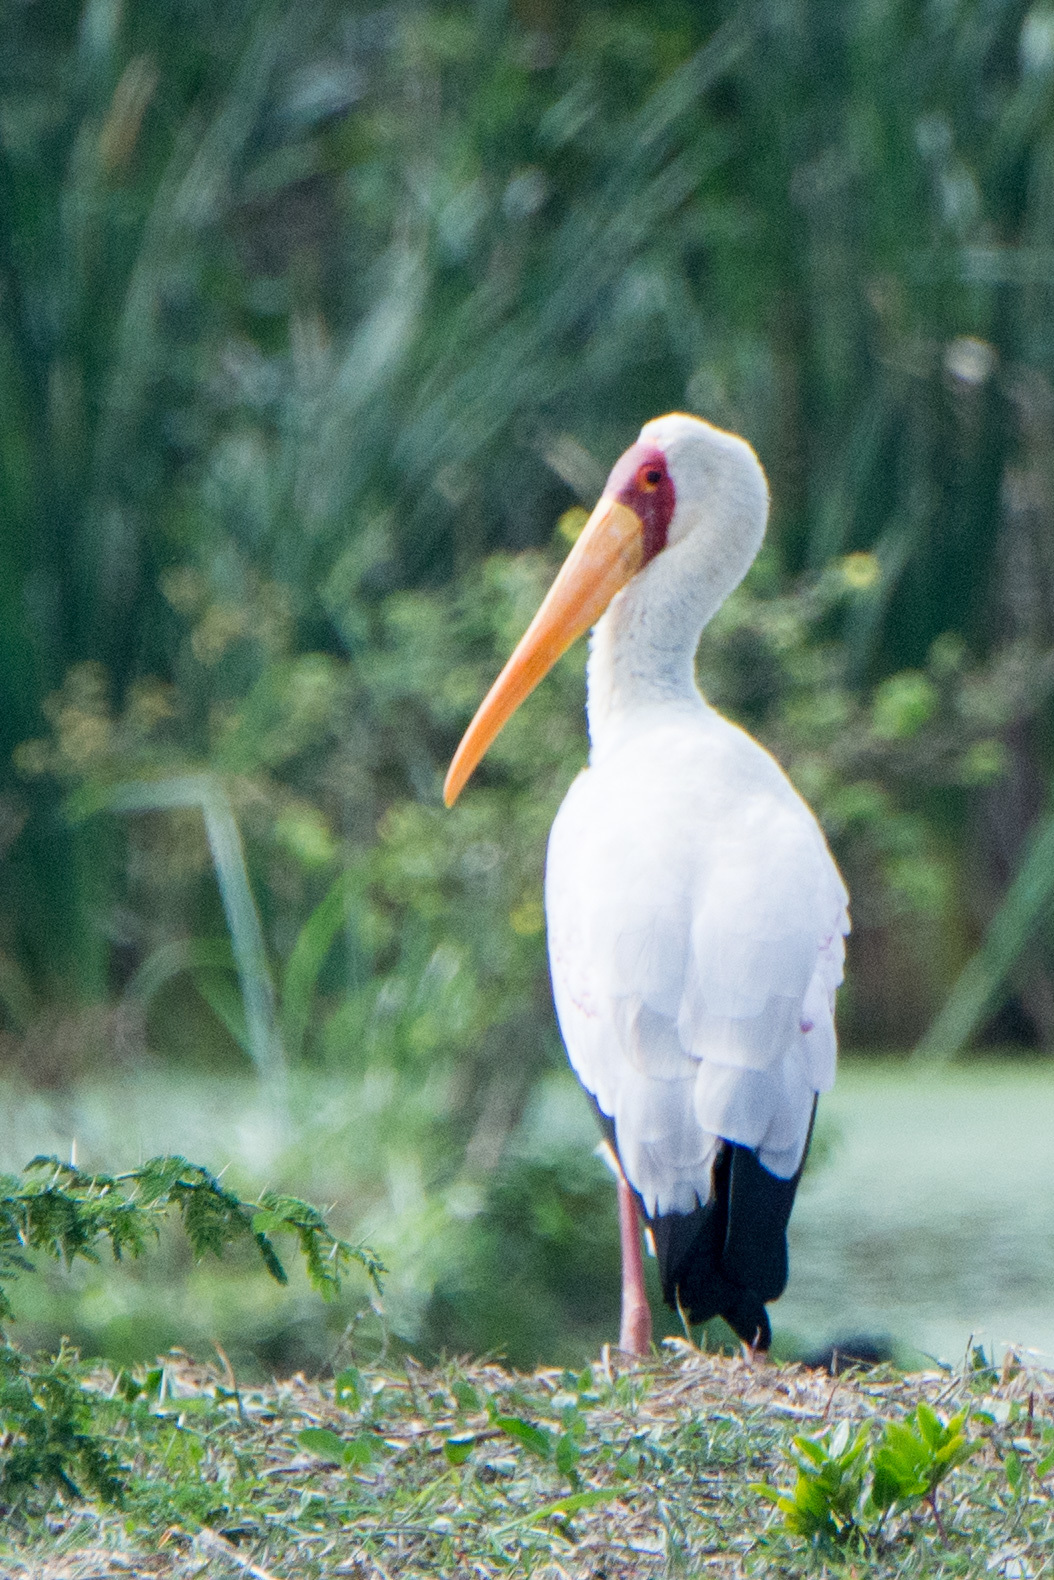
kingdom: Animalia
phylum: Chordata
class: Aves
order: Ciconiiformes
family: Ciconiidae
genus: Mycteria
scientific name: Mycteria ibis
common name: Yellow-billed stork
